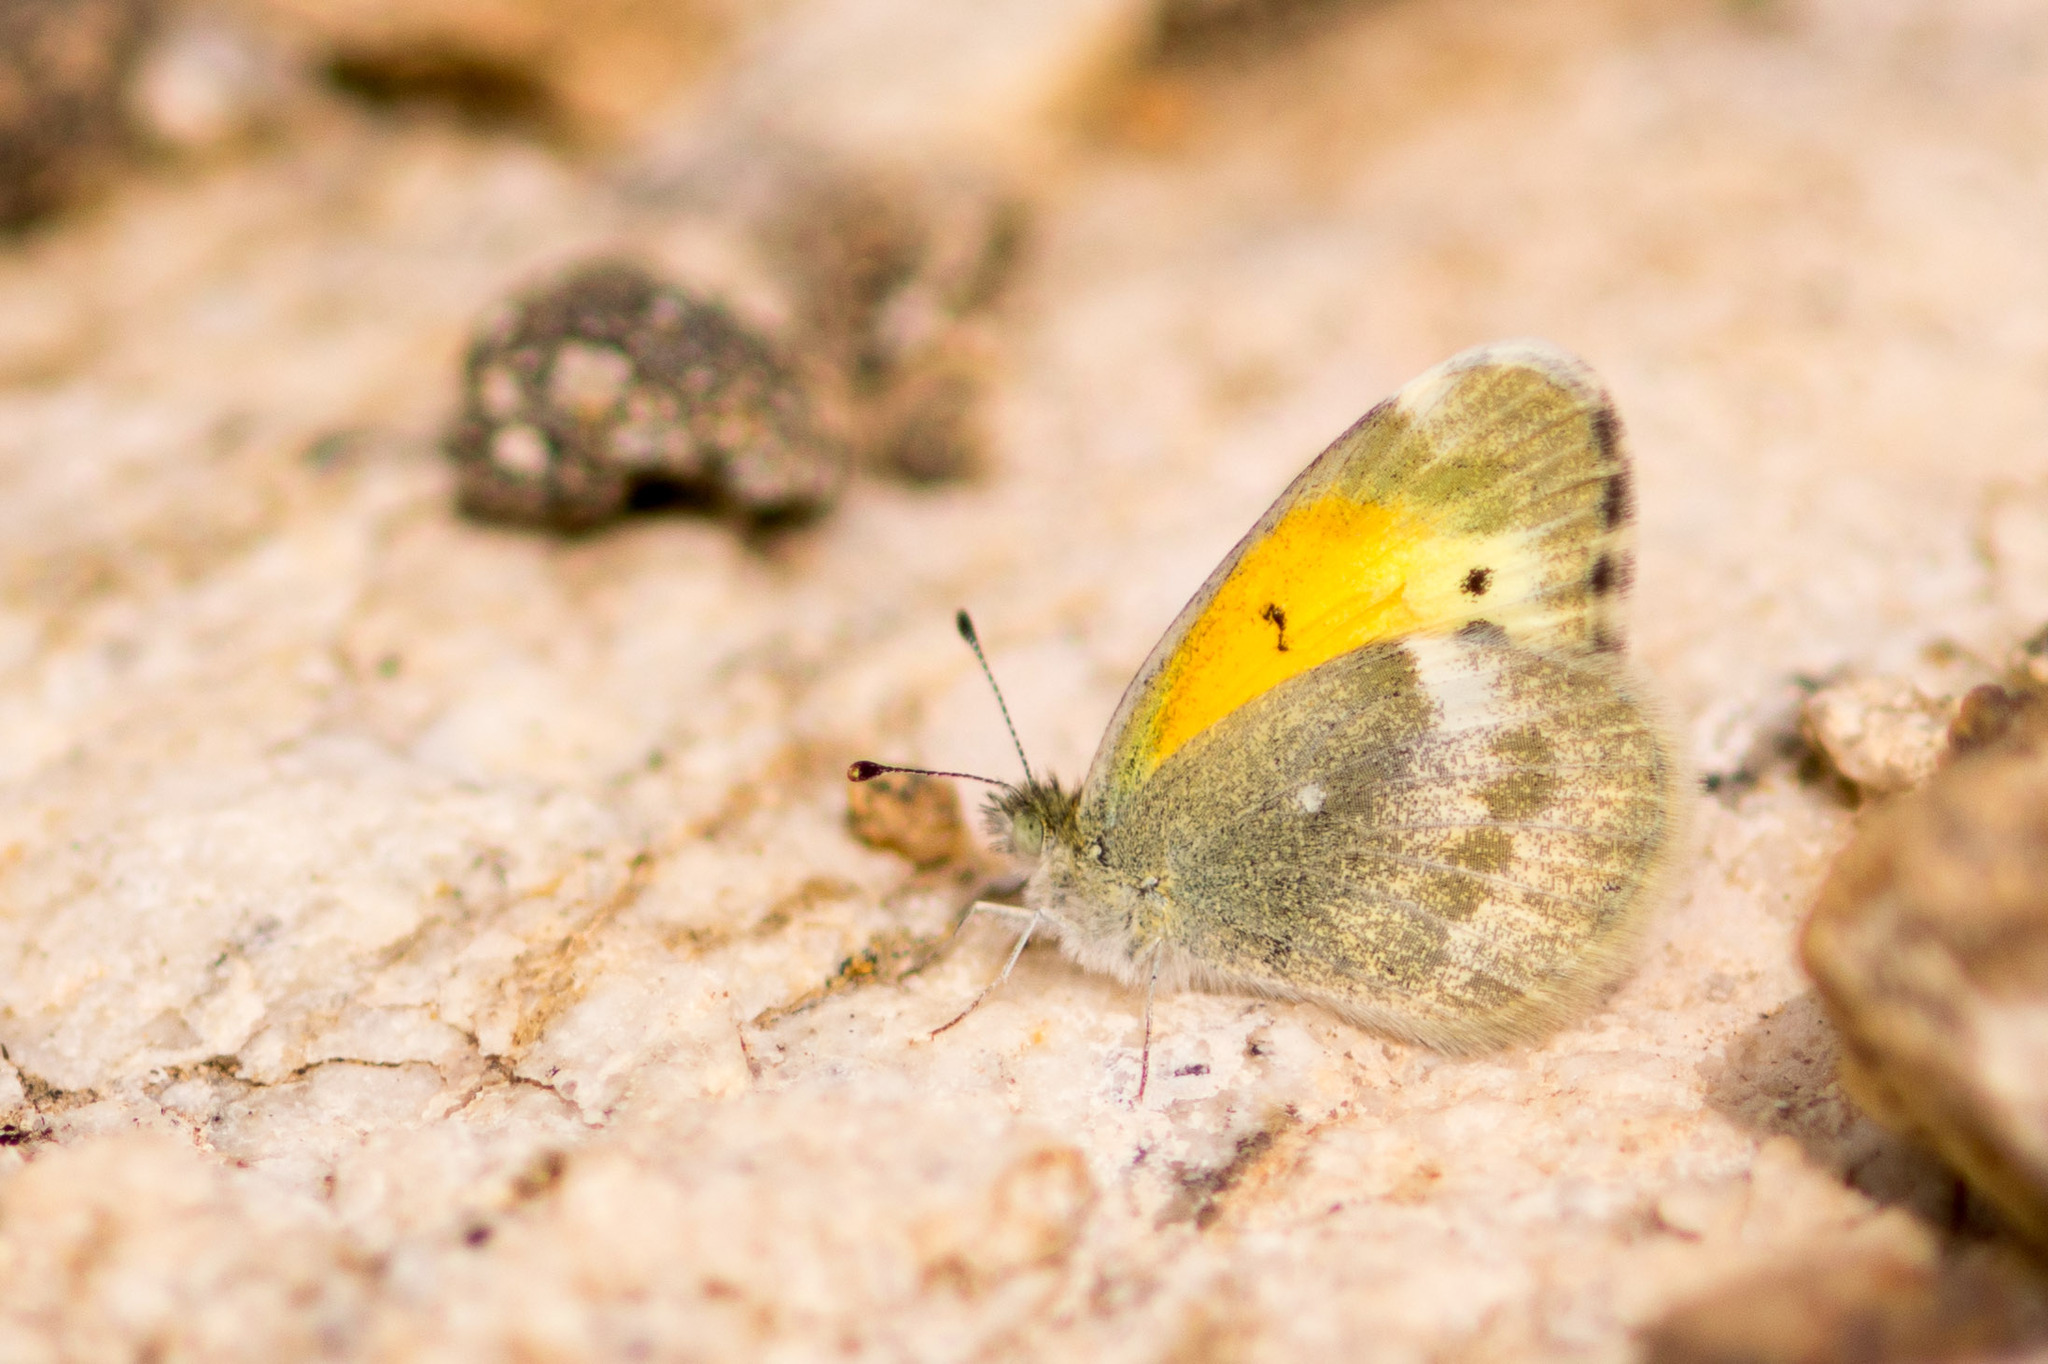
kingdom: Animalia
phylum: Arthropoda
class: Insecta
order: Lepidoptera
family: Pieridae
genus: Nathalis
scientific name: Nathalis iole
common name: Dainty sulphur
